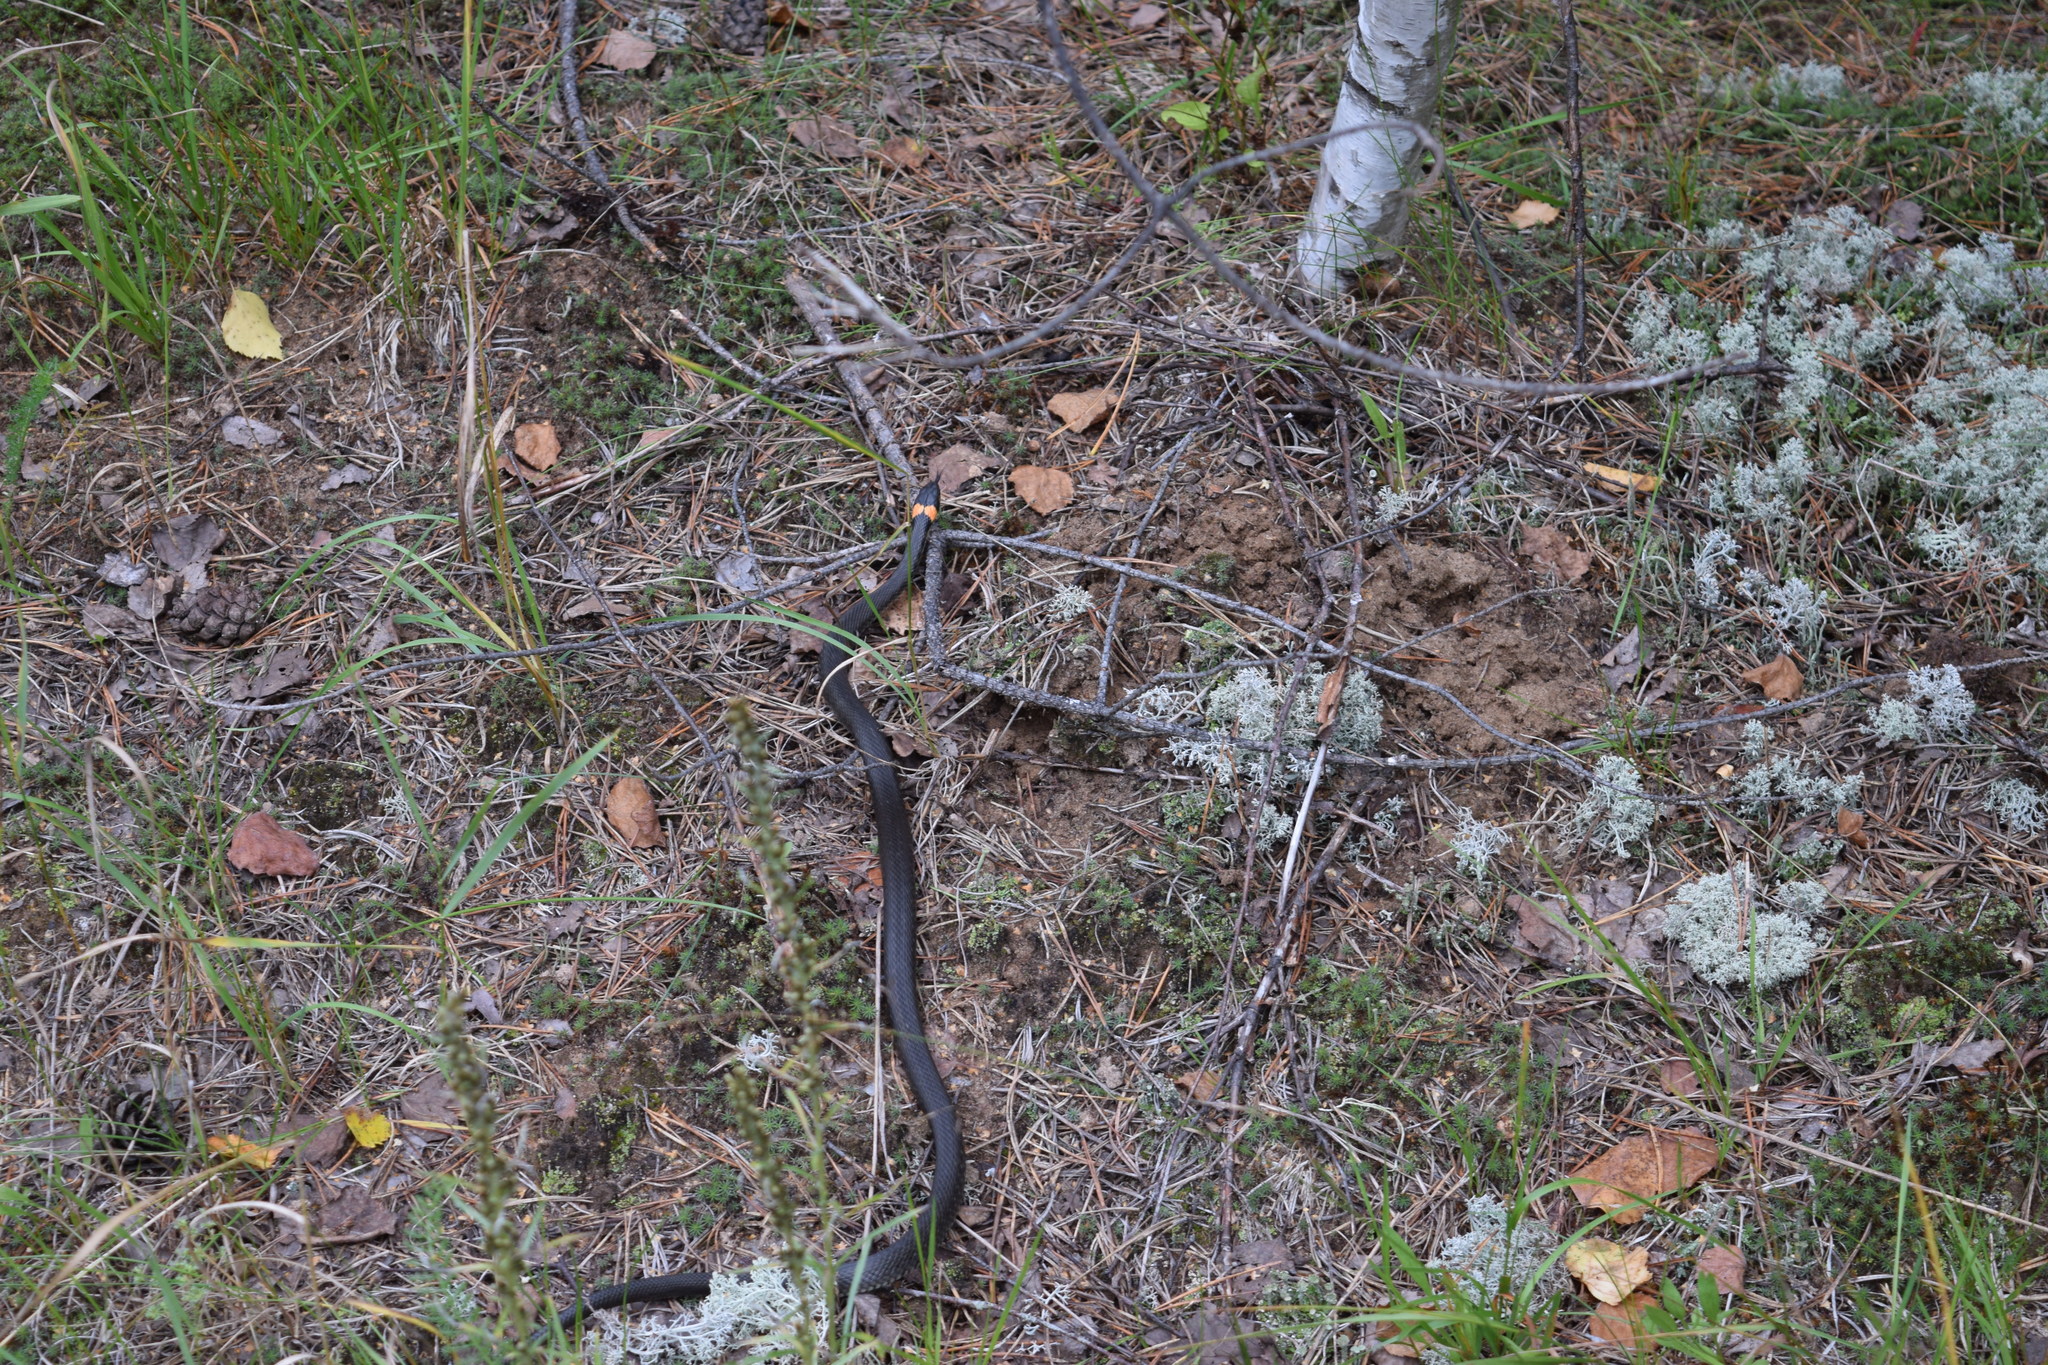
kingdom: Animalia
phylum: Chordata
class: Squamata
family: Colubridae
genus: Natrix
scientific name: Natrix natrix
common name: Grass snake
